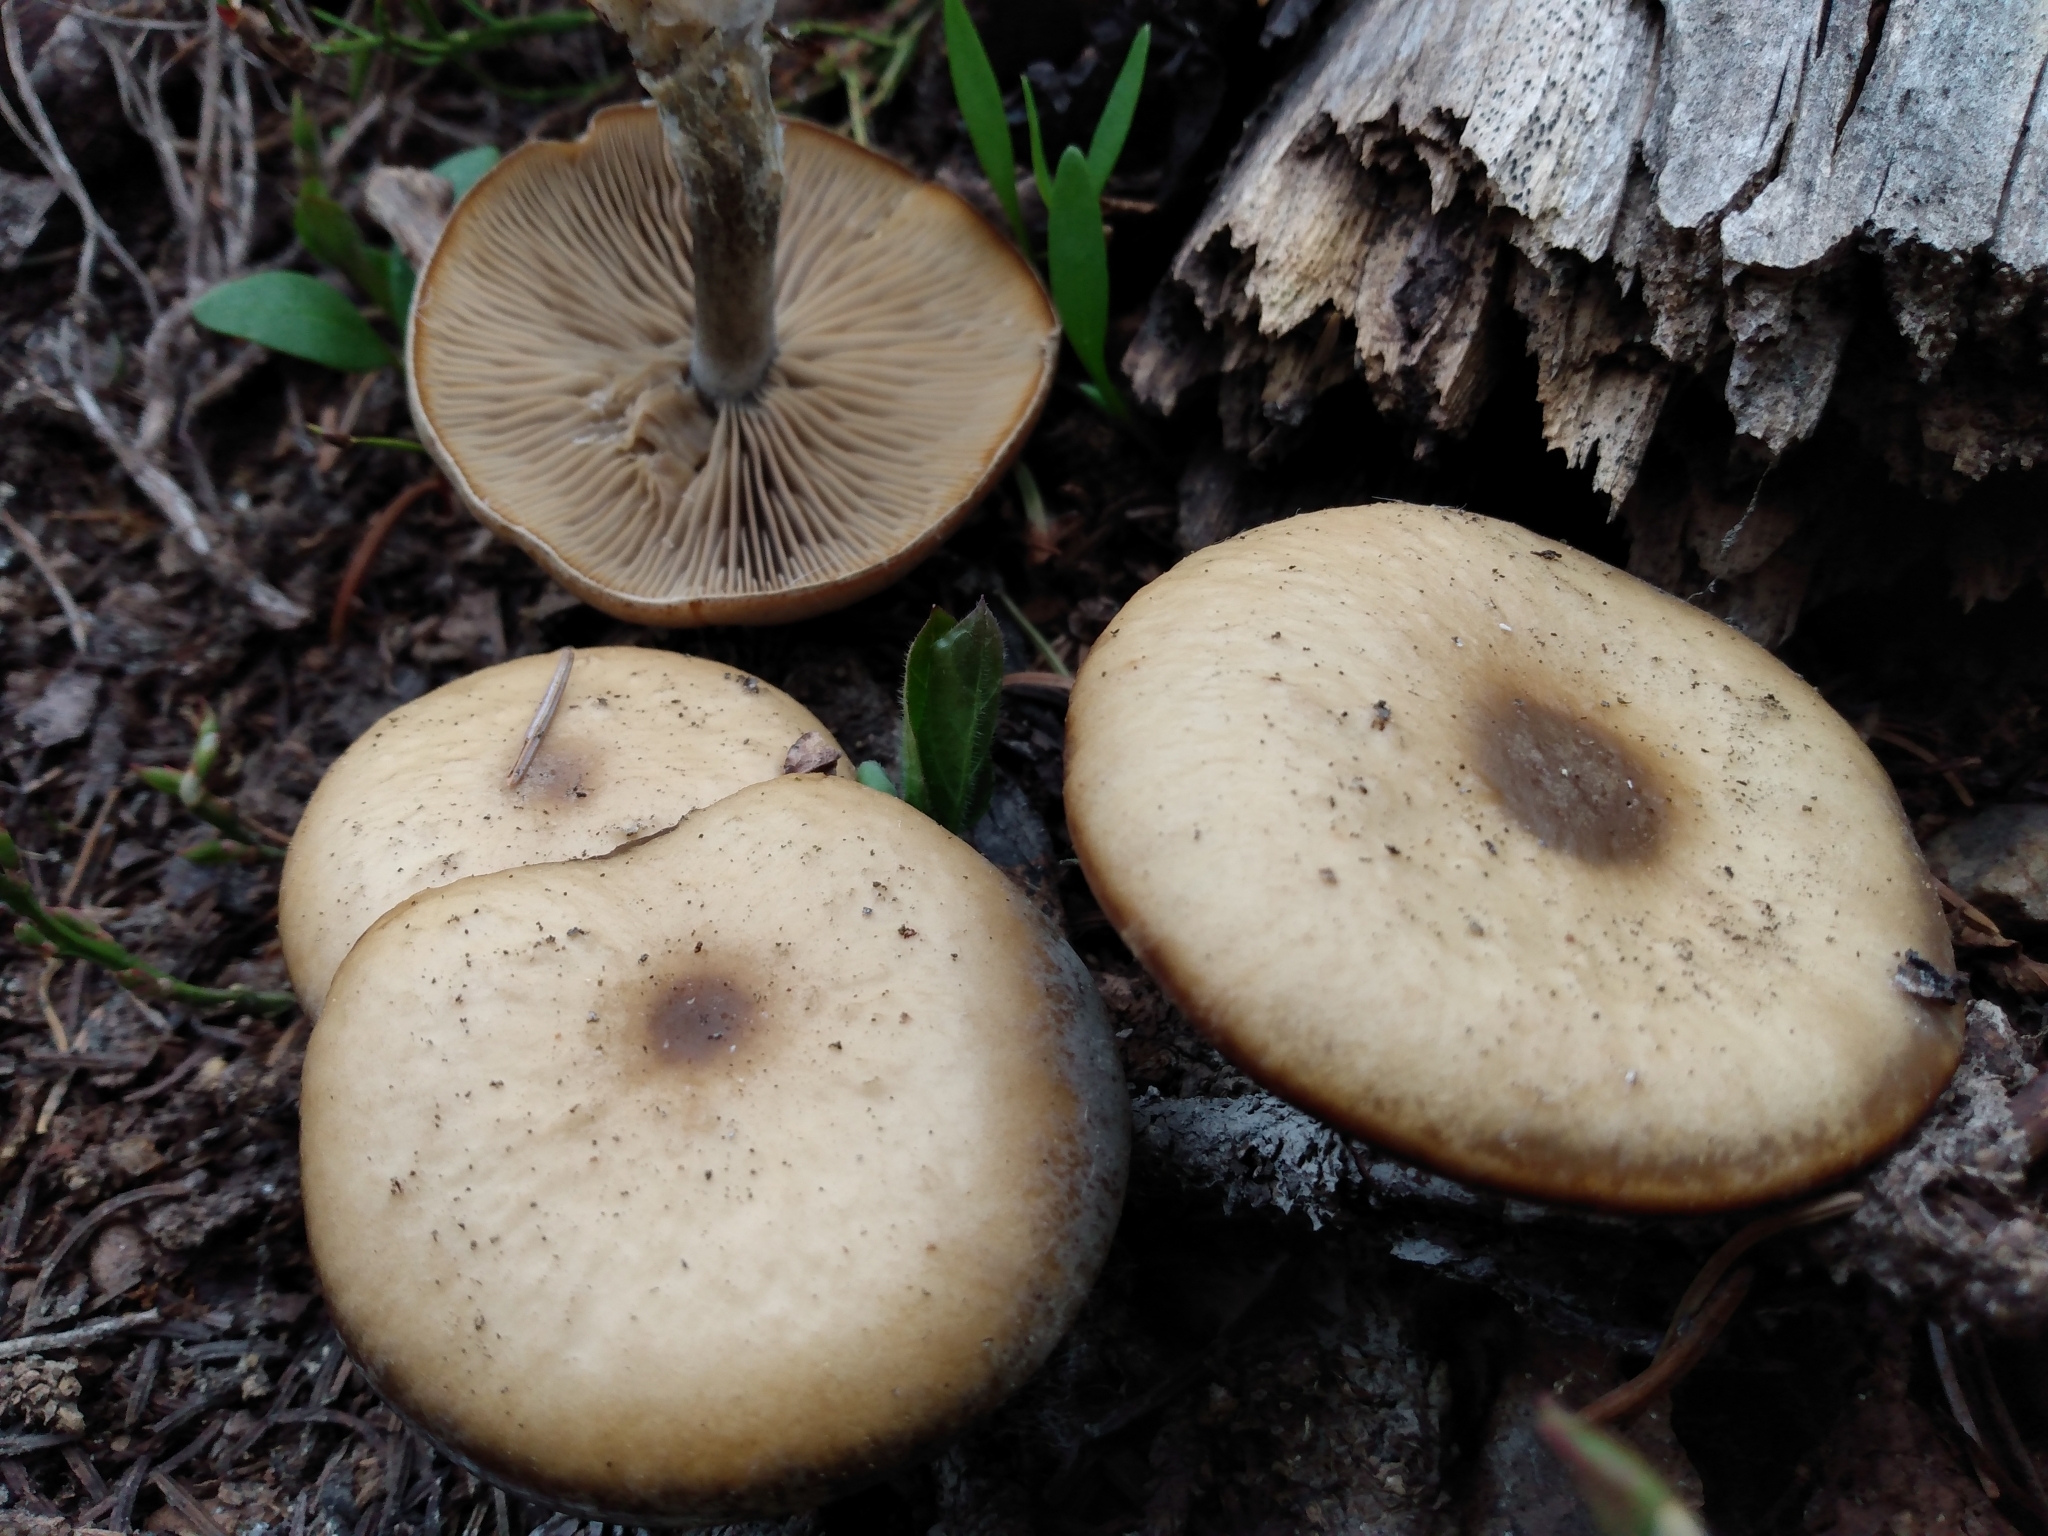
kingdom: Fungi
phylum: Basidiomycota
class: Agaricomycetes
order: Agaricales
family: Tricholomataceae
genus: Clitocybe
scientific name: Clitocybe albirhiza
